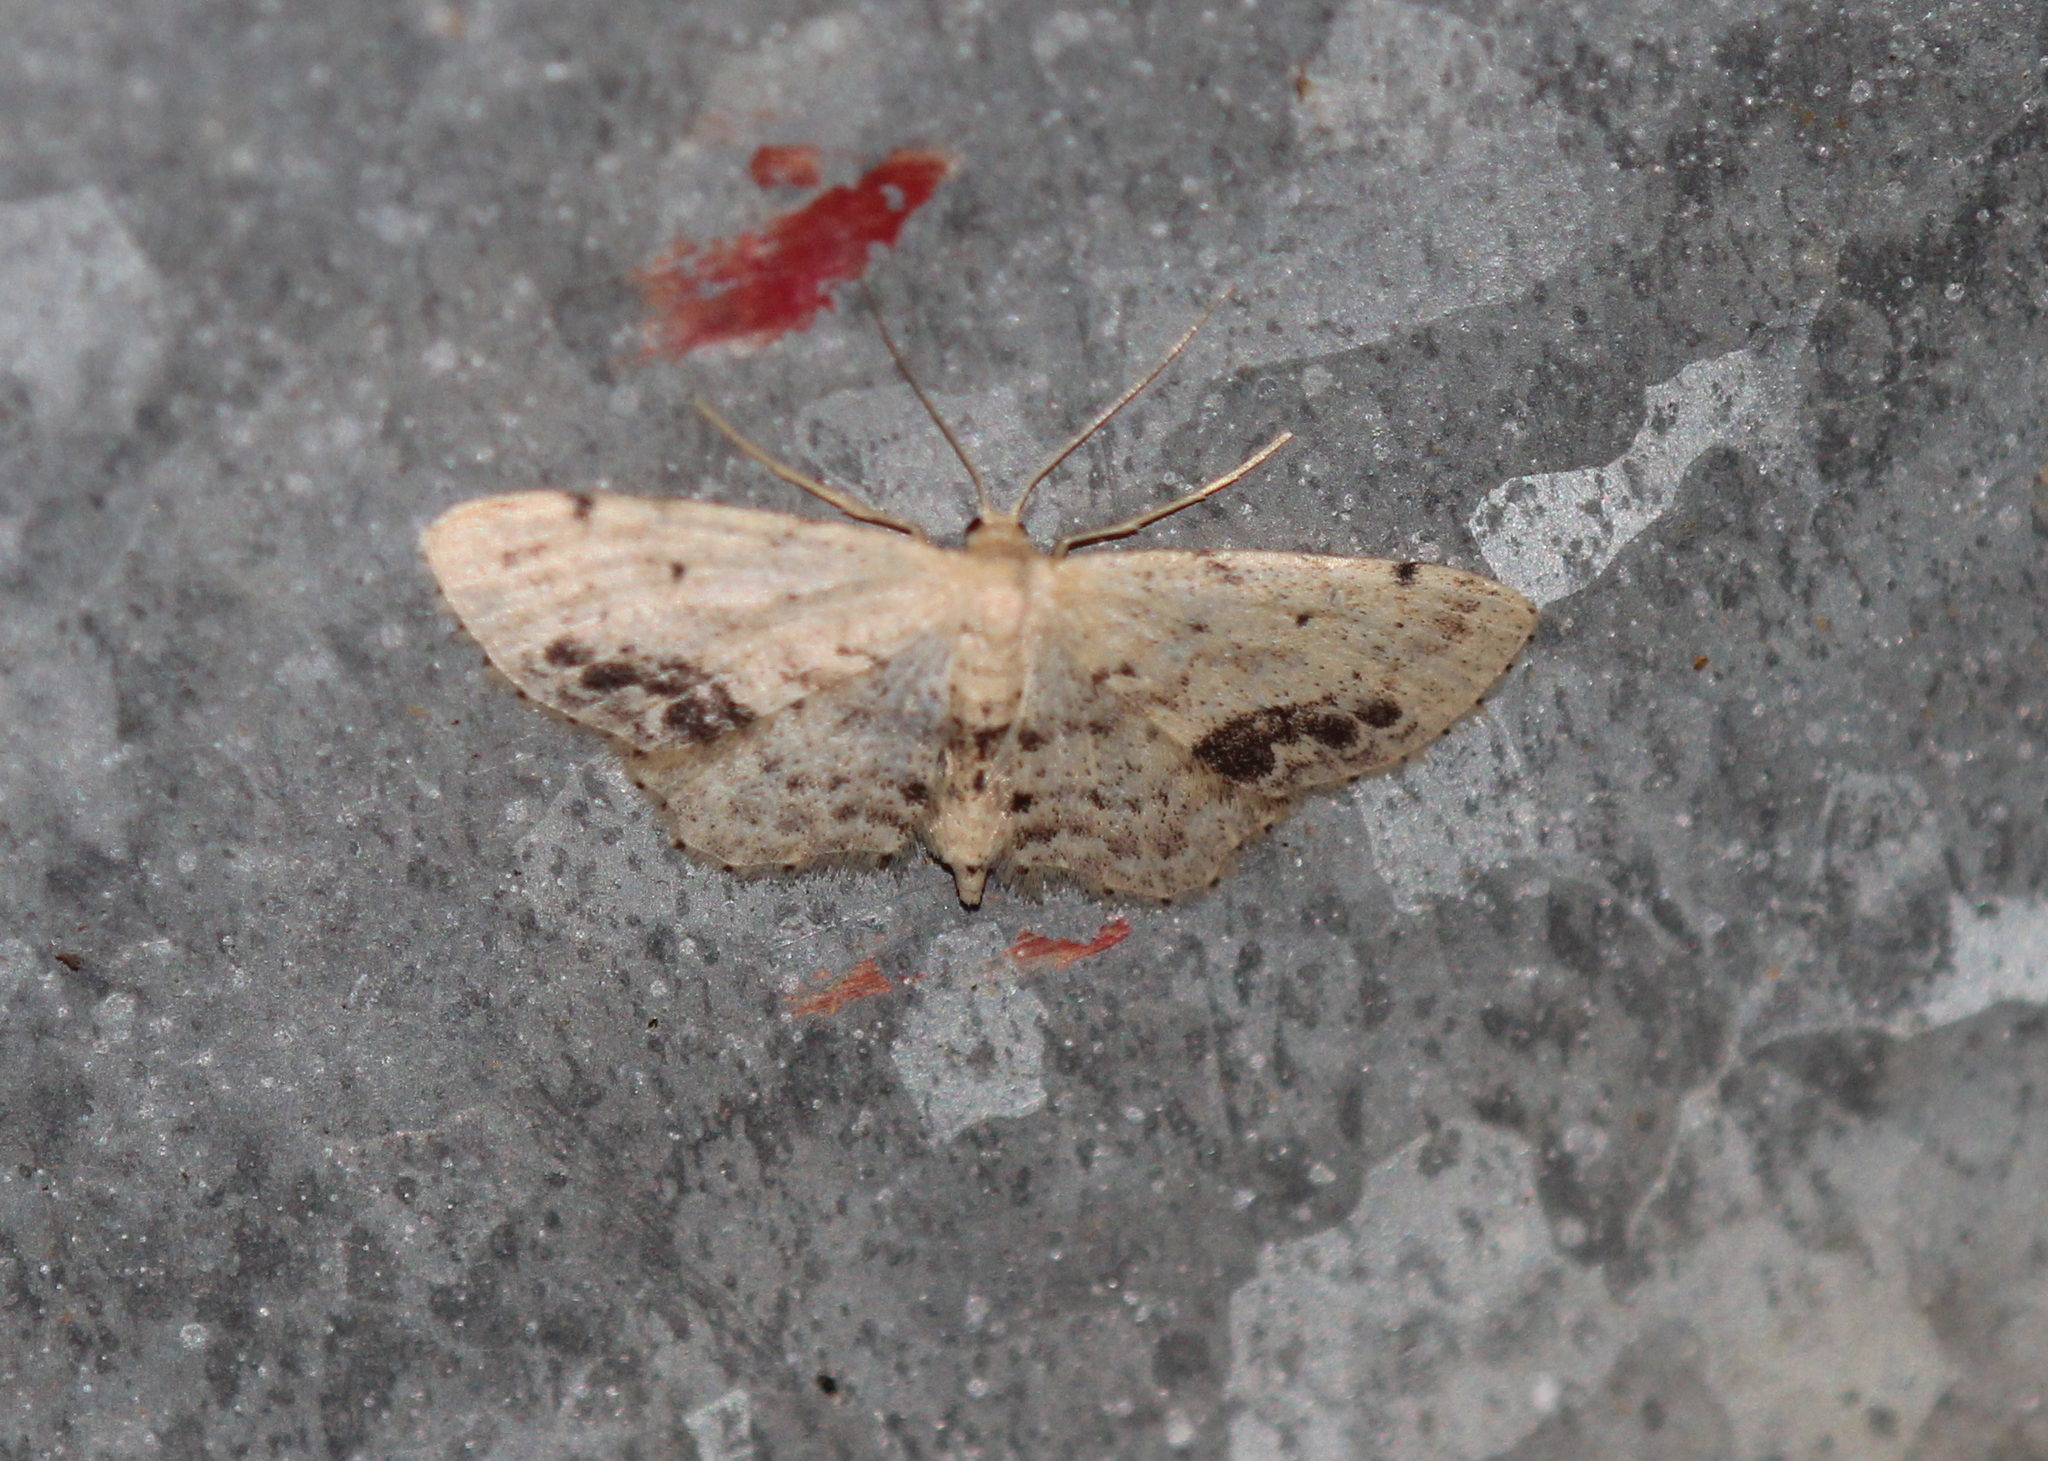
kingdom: Animalia
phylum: Arthropoda
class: Insecta
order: Lepidoptera
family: Geometridae
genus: Idaea
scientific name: Idaea dimidiata
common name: Single-dotted wave
